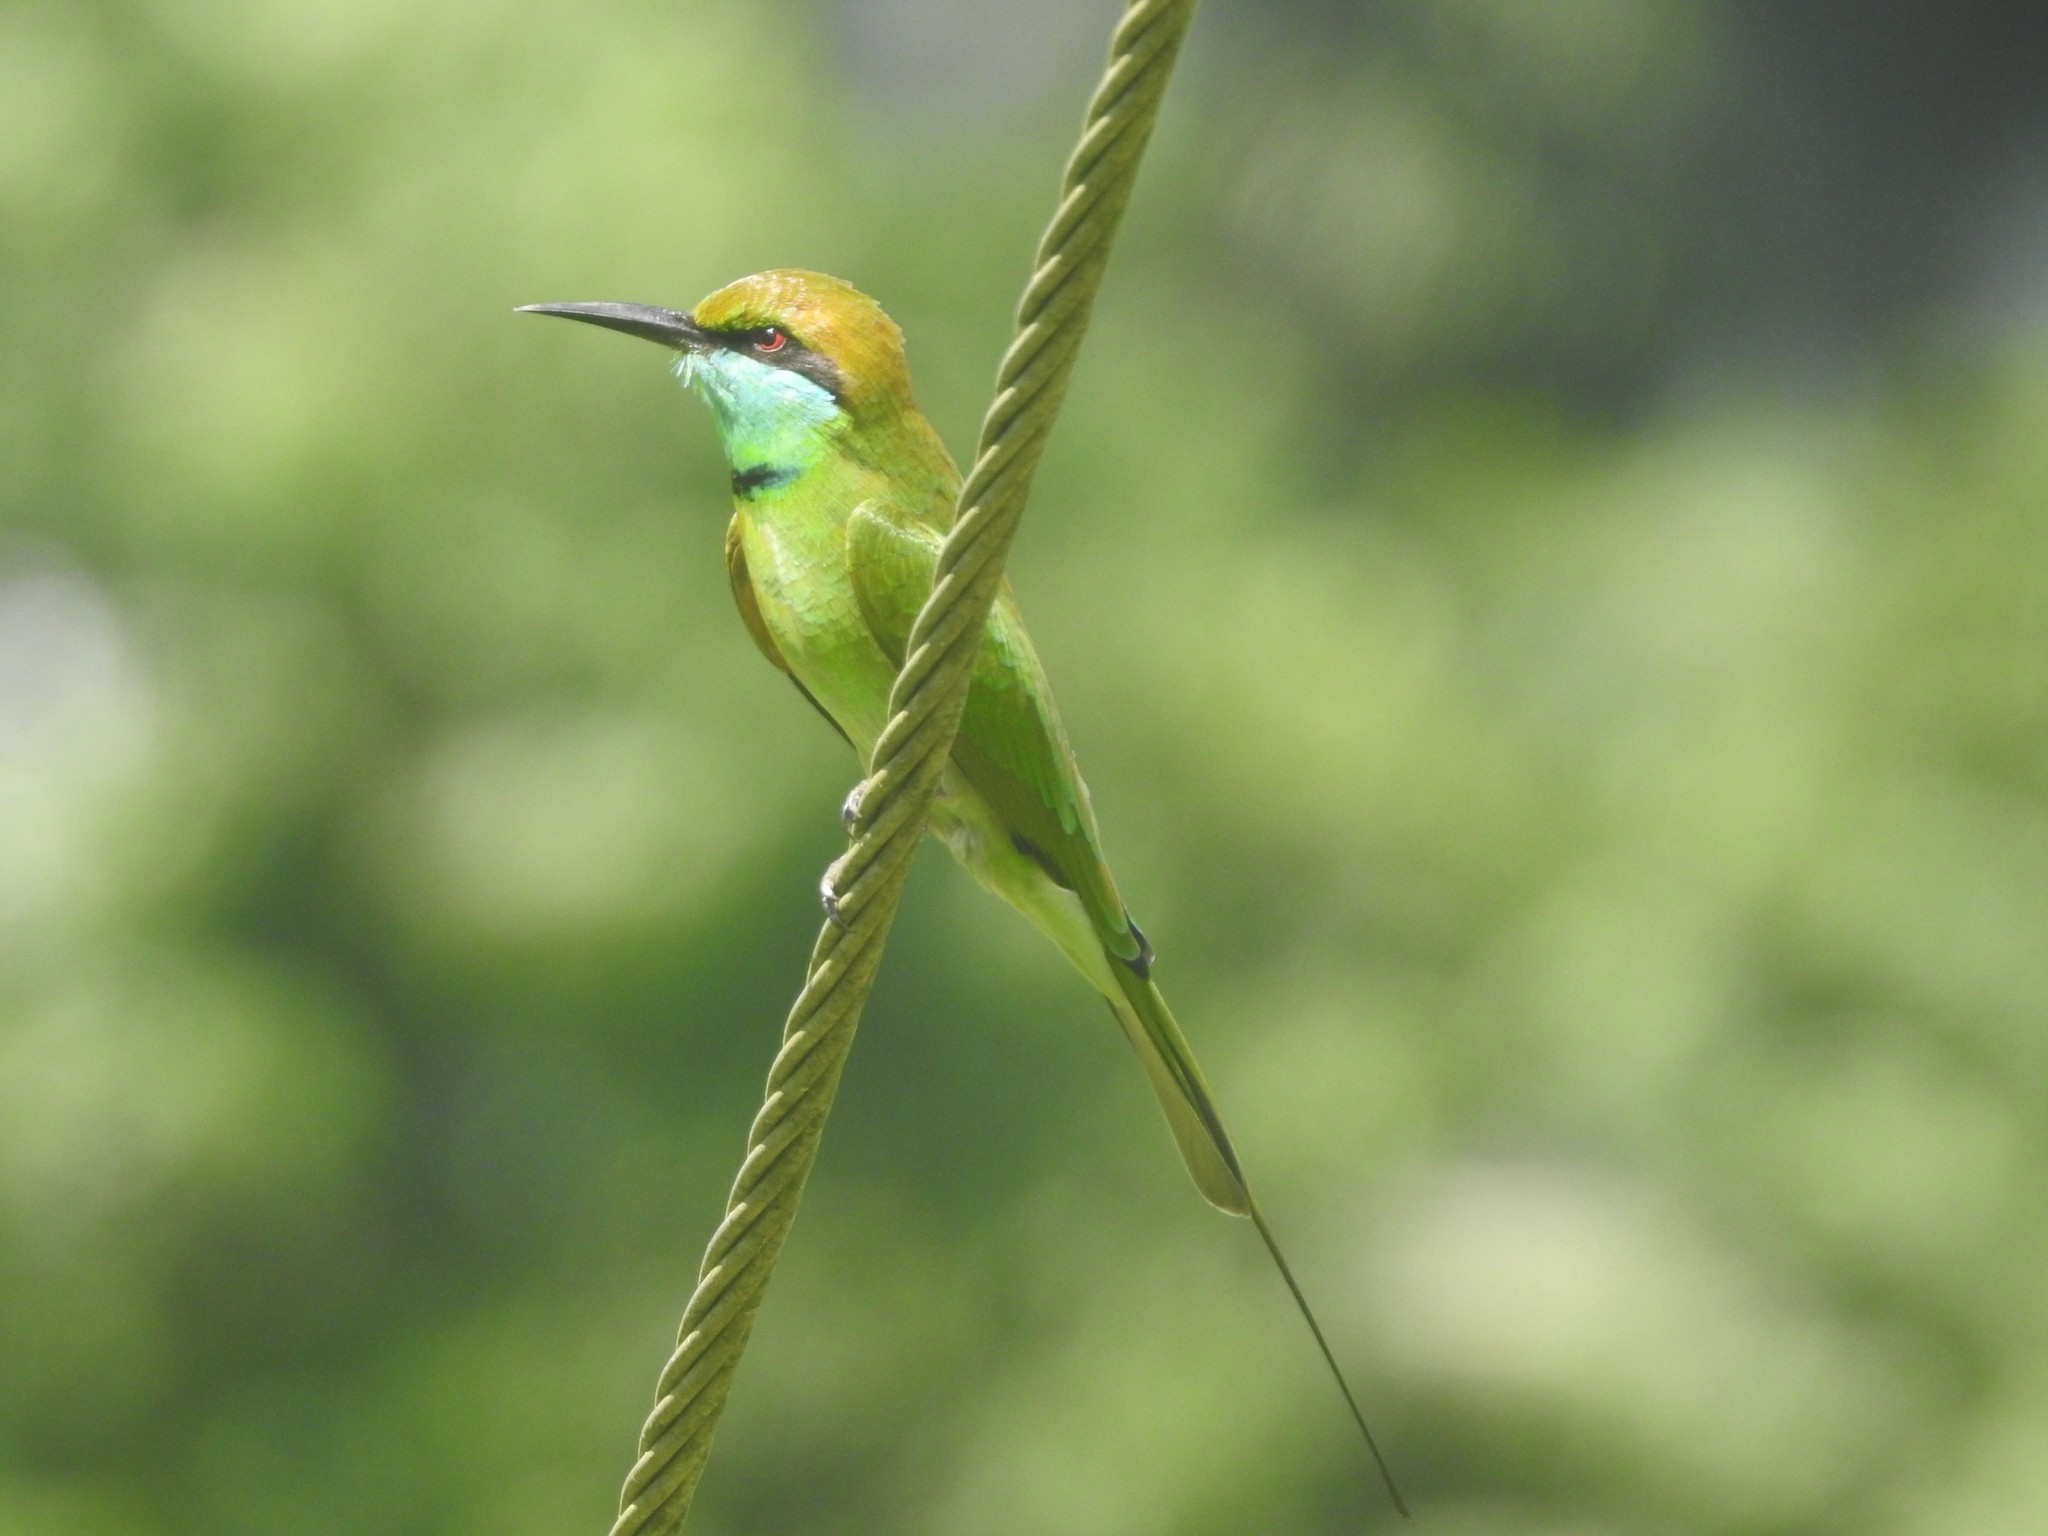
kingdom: Animalia
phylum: Chordata
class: Aves
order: Coraciiformes
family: Meropidae
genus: Merops
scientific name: Merops orientalis
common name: Green bee-eater
